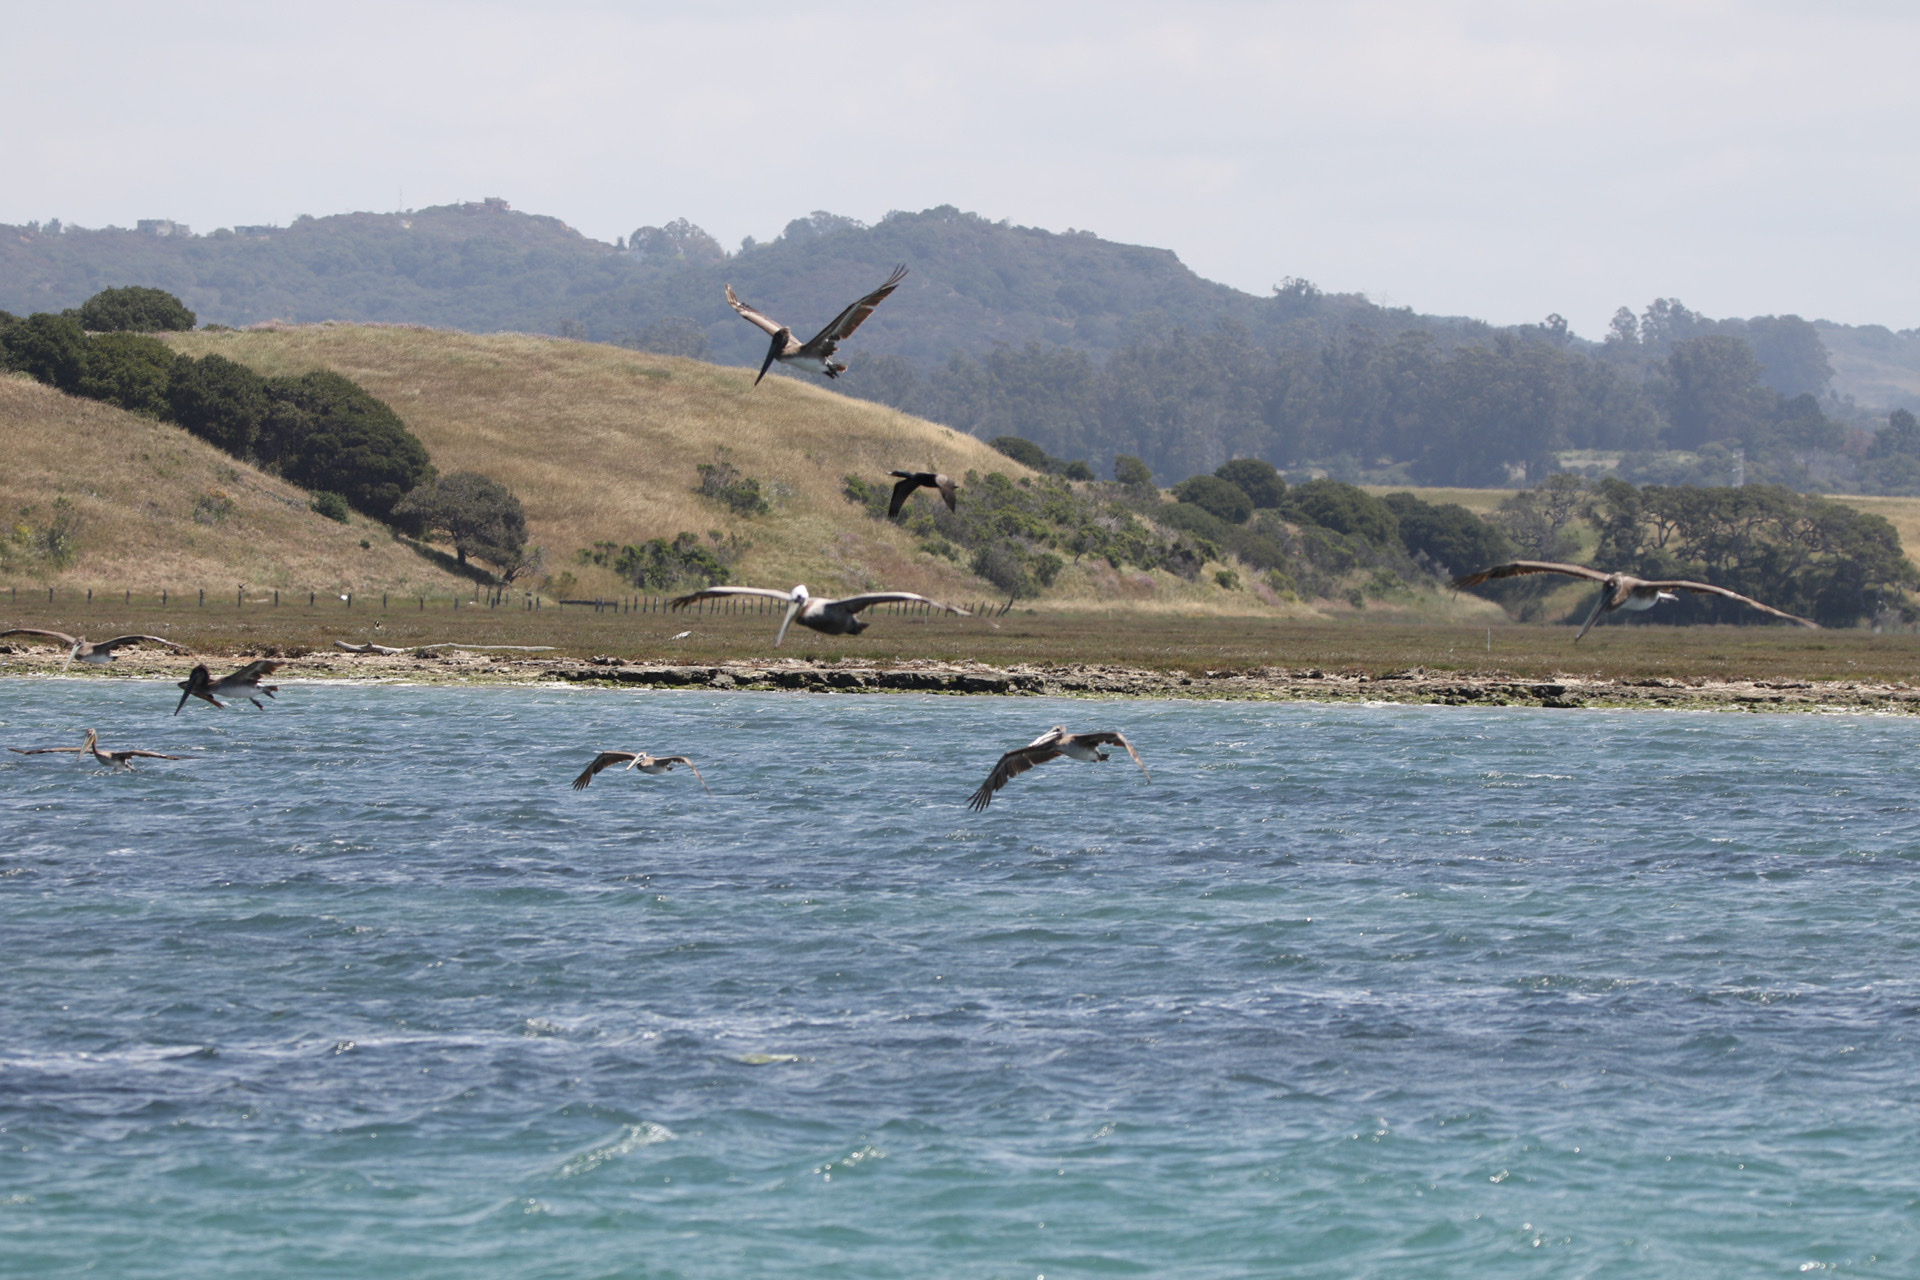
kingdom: Animalia
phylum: Chordata
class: Aves
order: Pelecaniformes
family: Pelecanidae
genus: Pelecanus
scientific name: Pelecanus occidentalis
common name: Brown pelican
